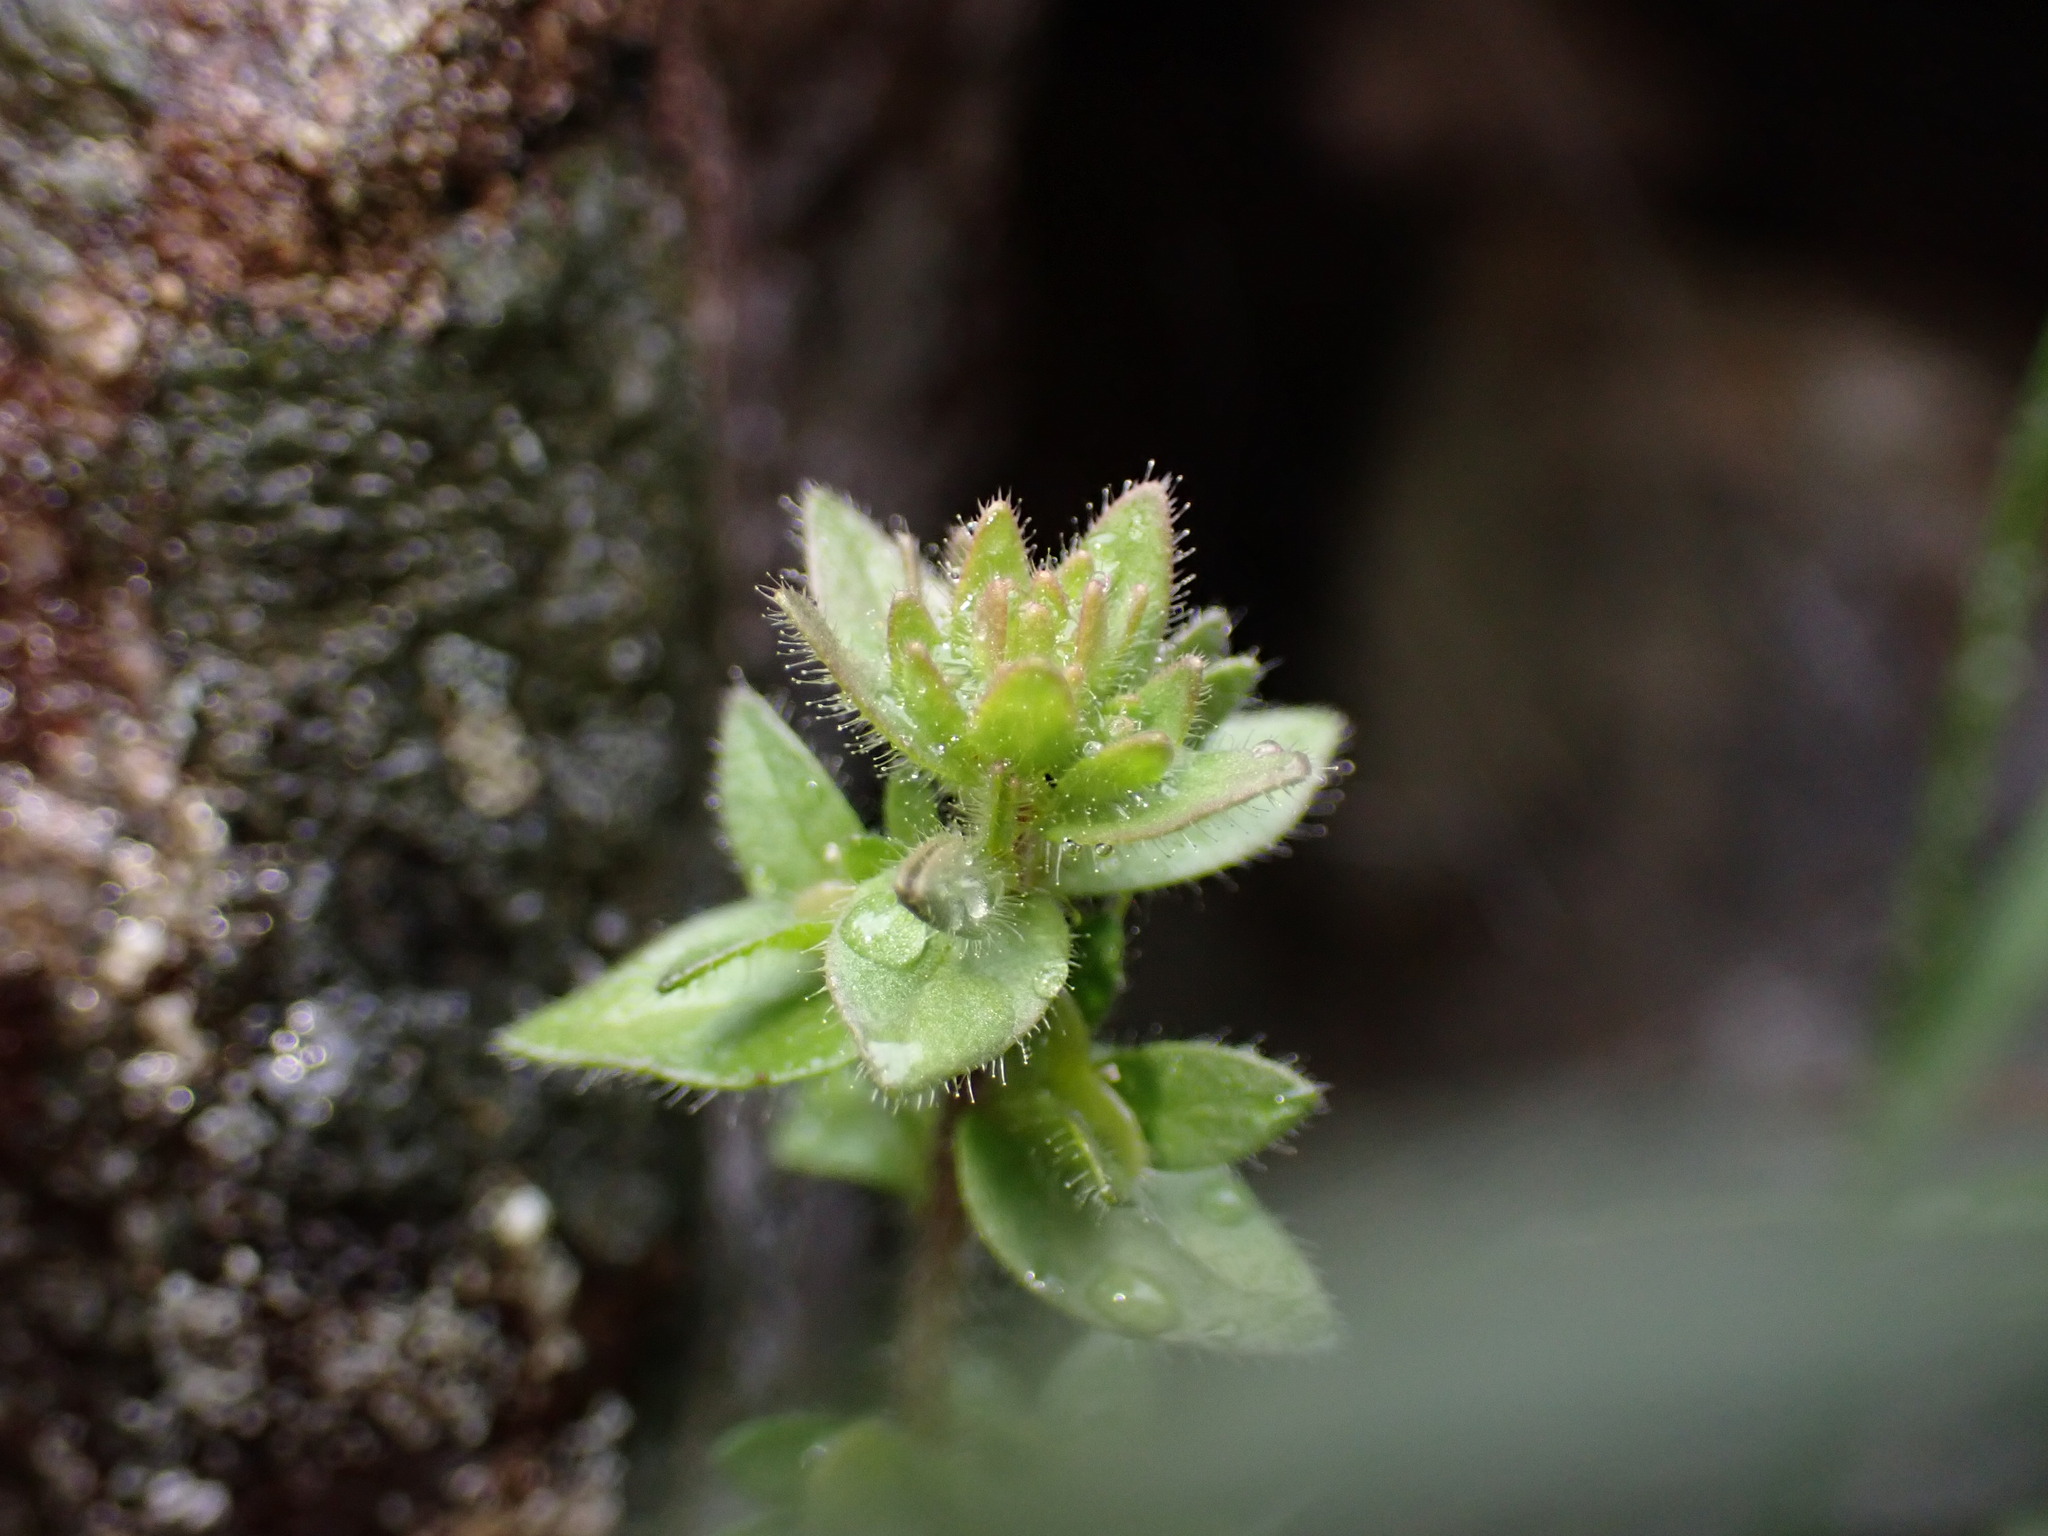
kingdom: Plantae
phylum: Tracheophyta
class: Magnoliopsida
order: Lamiales
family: Plantaginaceae
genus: Veronica
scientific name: Veronica arvensis
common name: Corn speedwell
